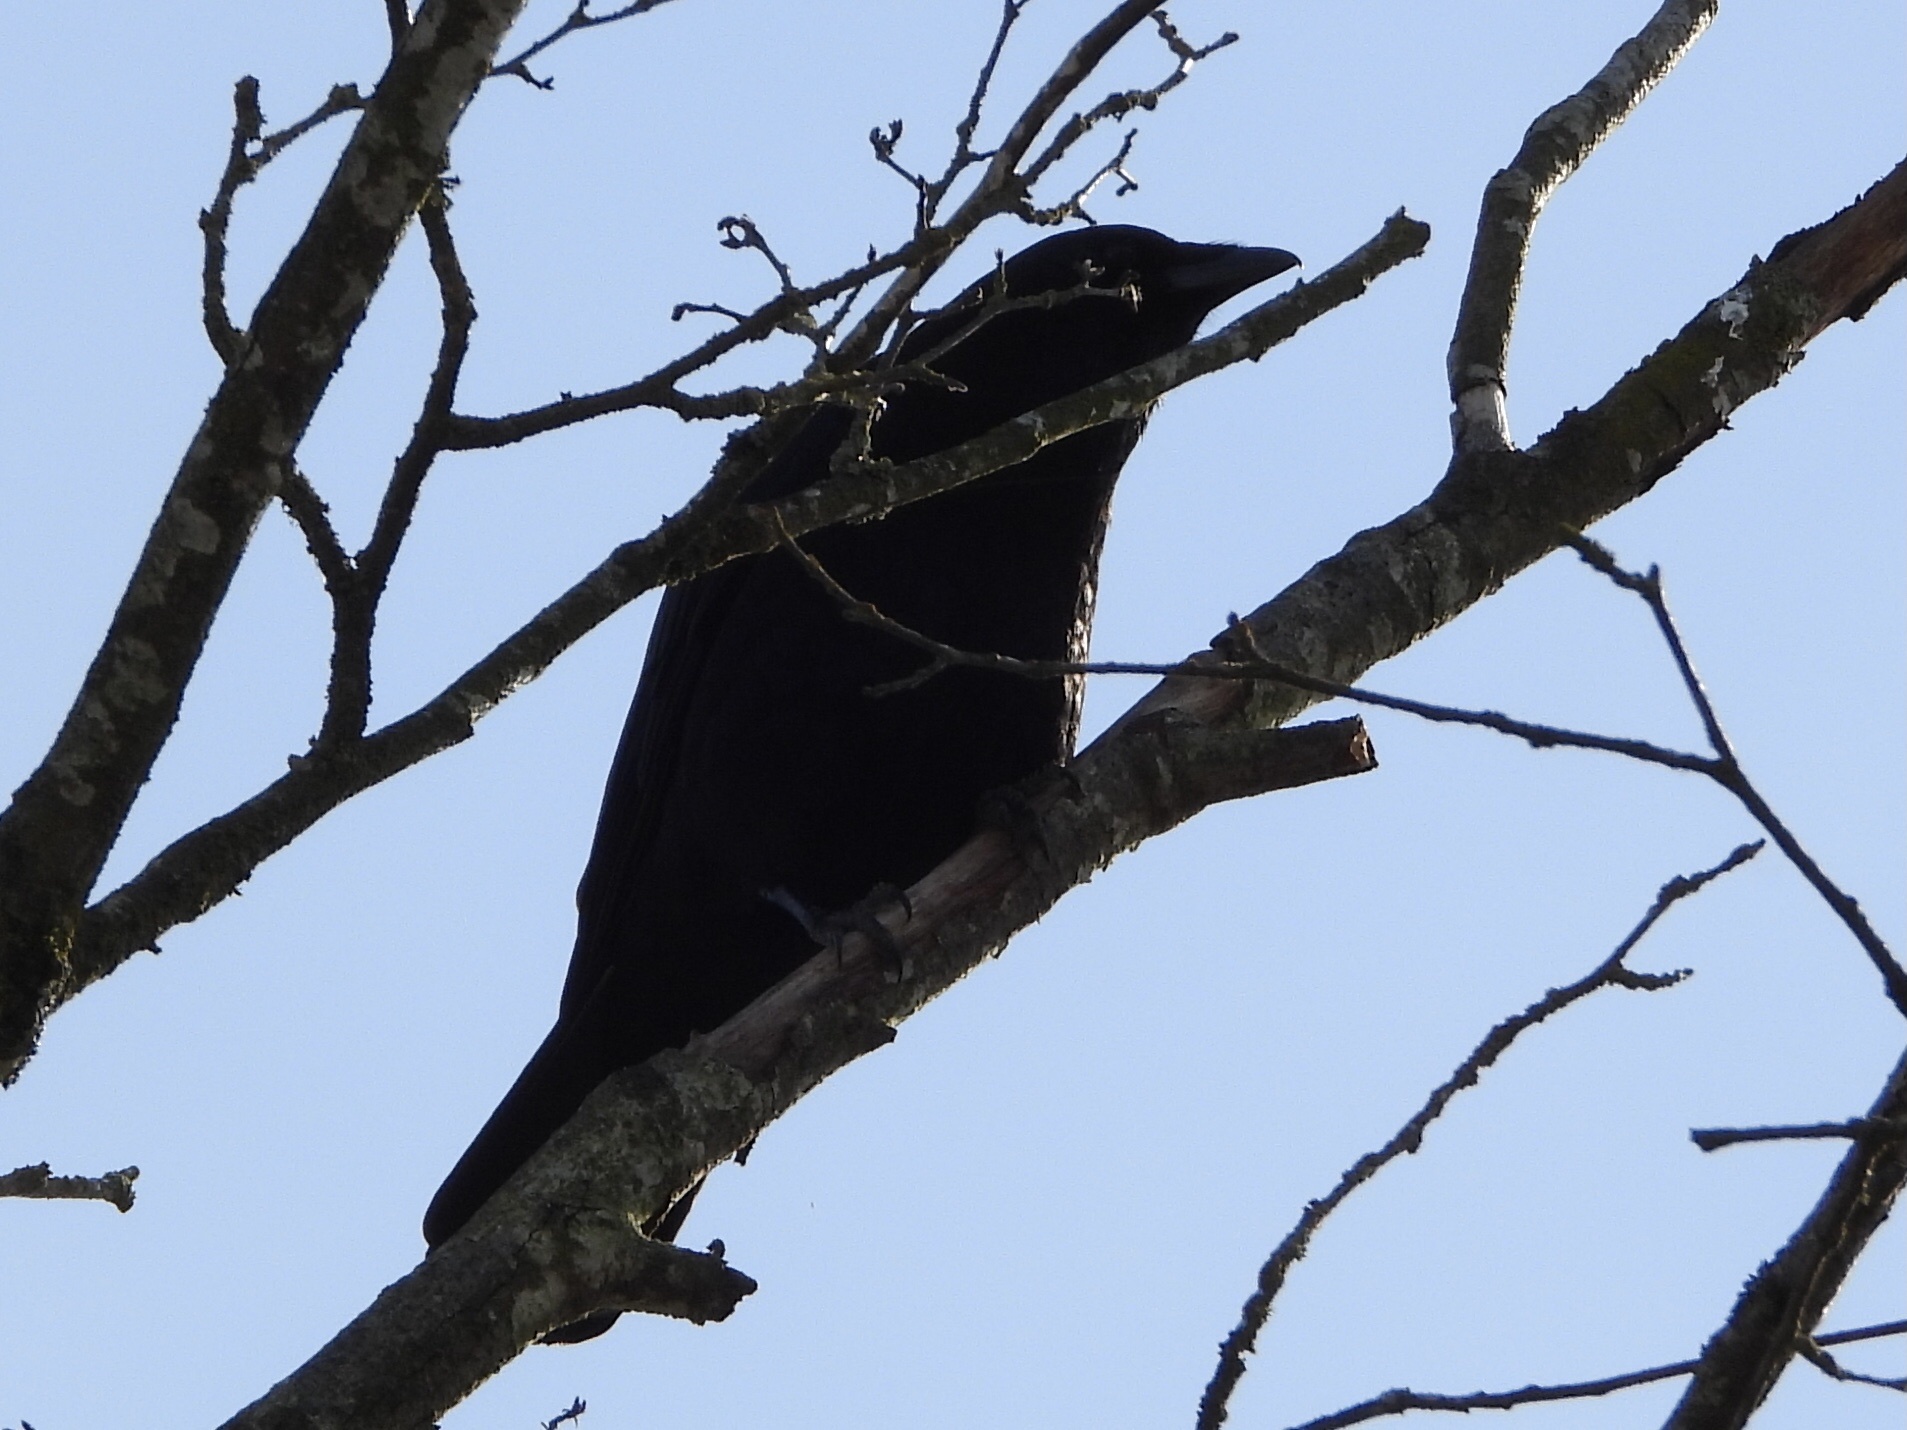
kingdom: Animalia
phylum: Chordata
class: Aves
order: Passeriformes
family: Corvidae
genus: Corvus
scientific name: Corvus brachyrhynchos
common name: American crow
